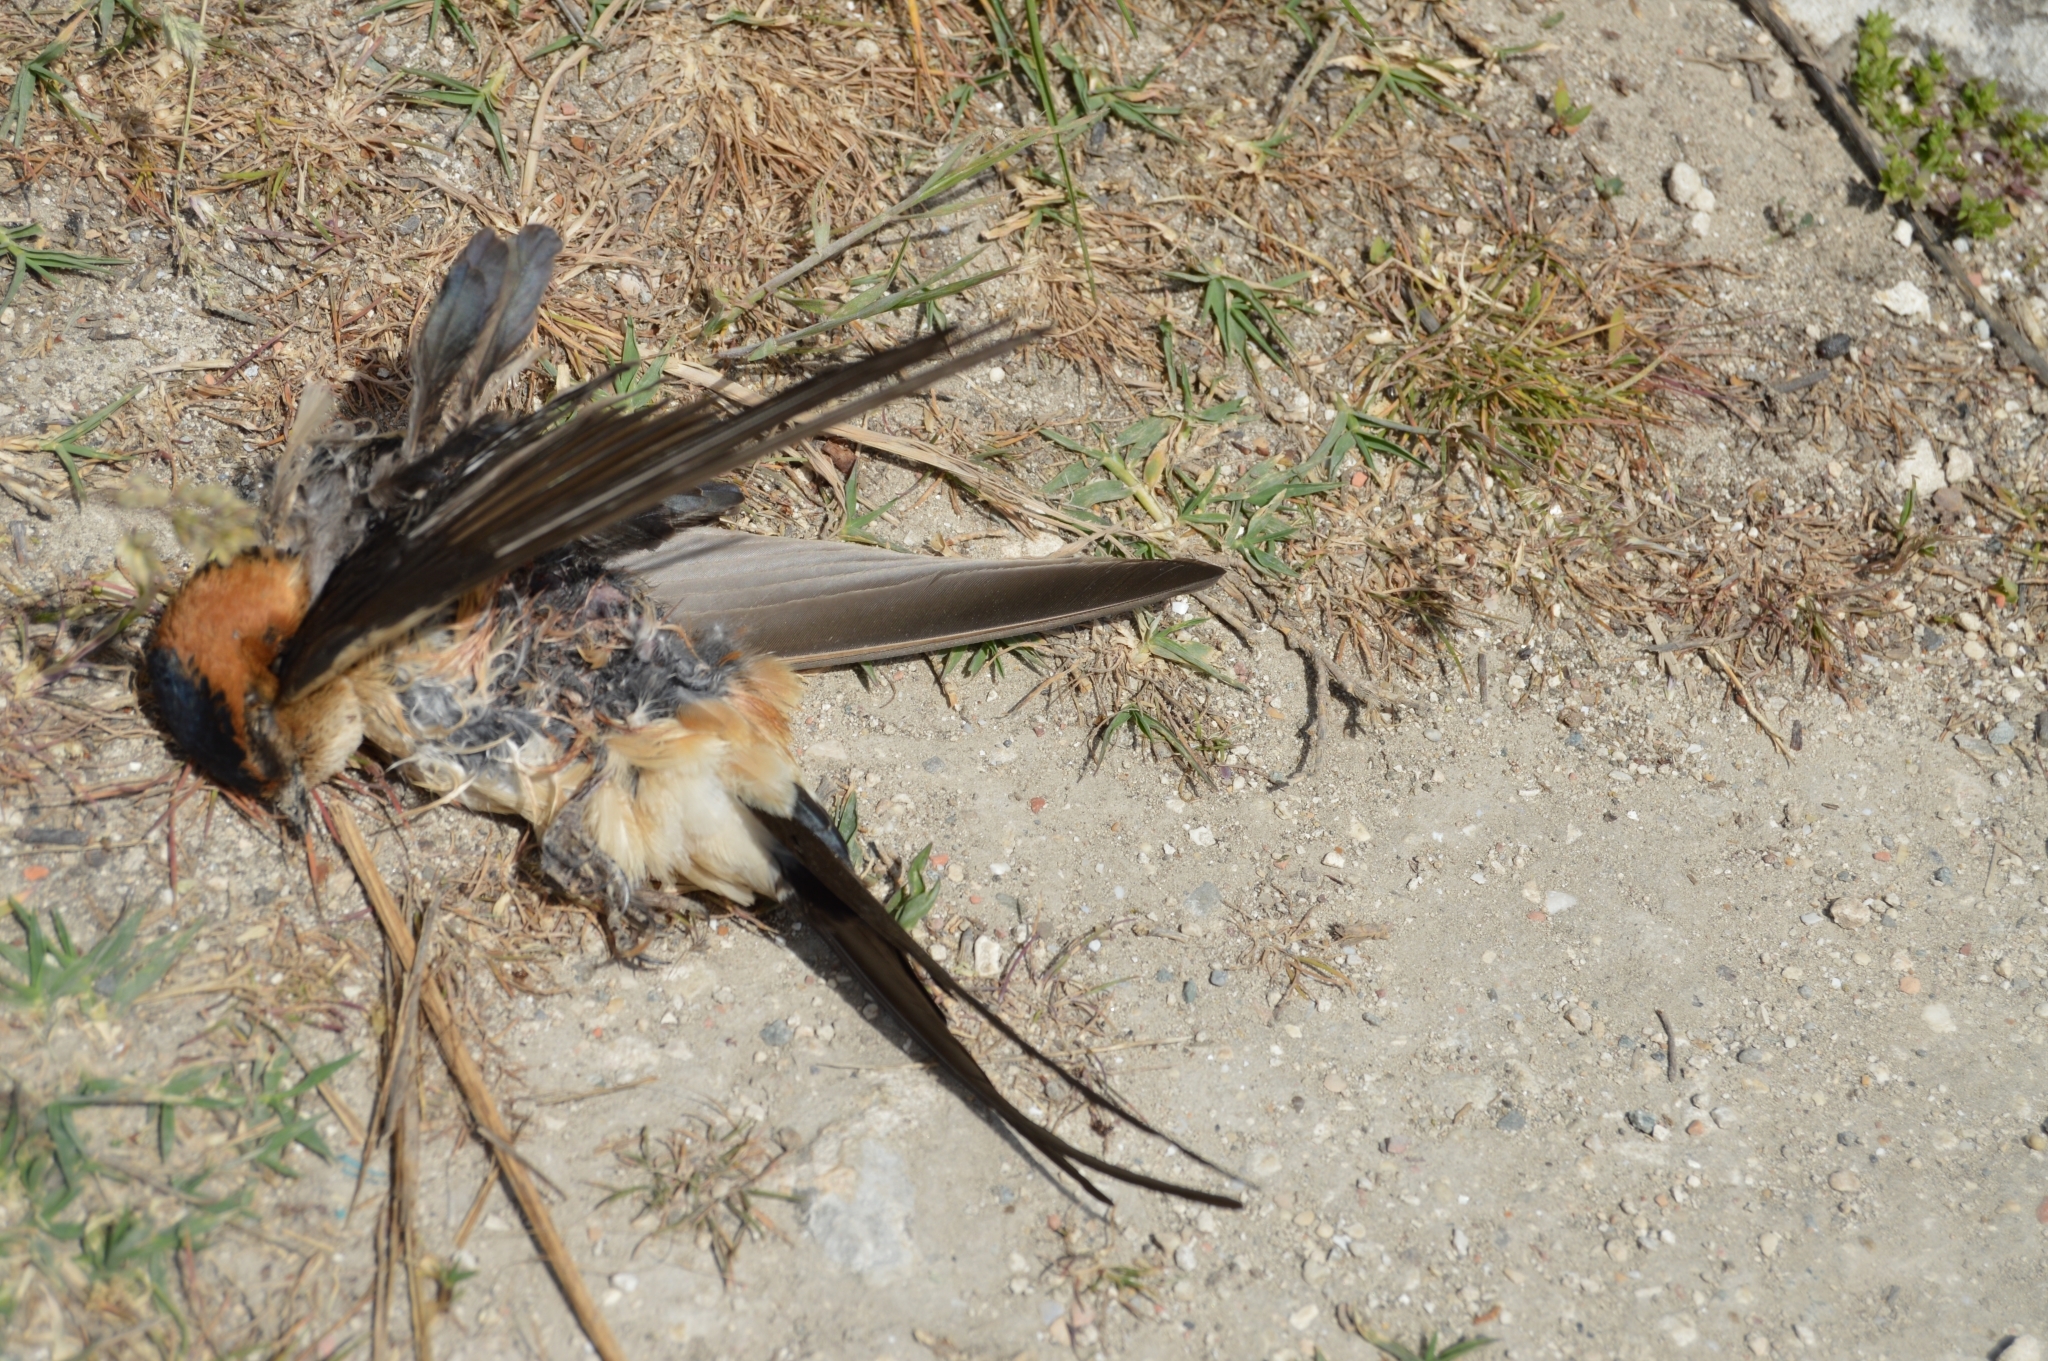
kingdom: Animalia
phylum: Chordata
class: Aves
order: Passeriformes
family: Hirundinidae
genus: Cecropis
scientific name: Cecropis daurica
